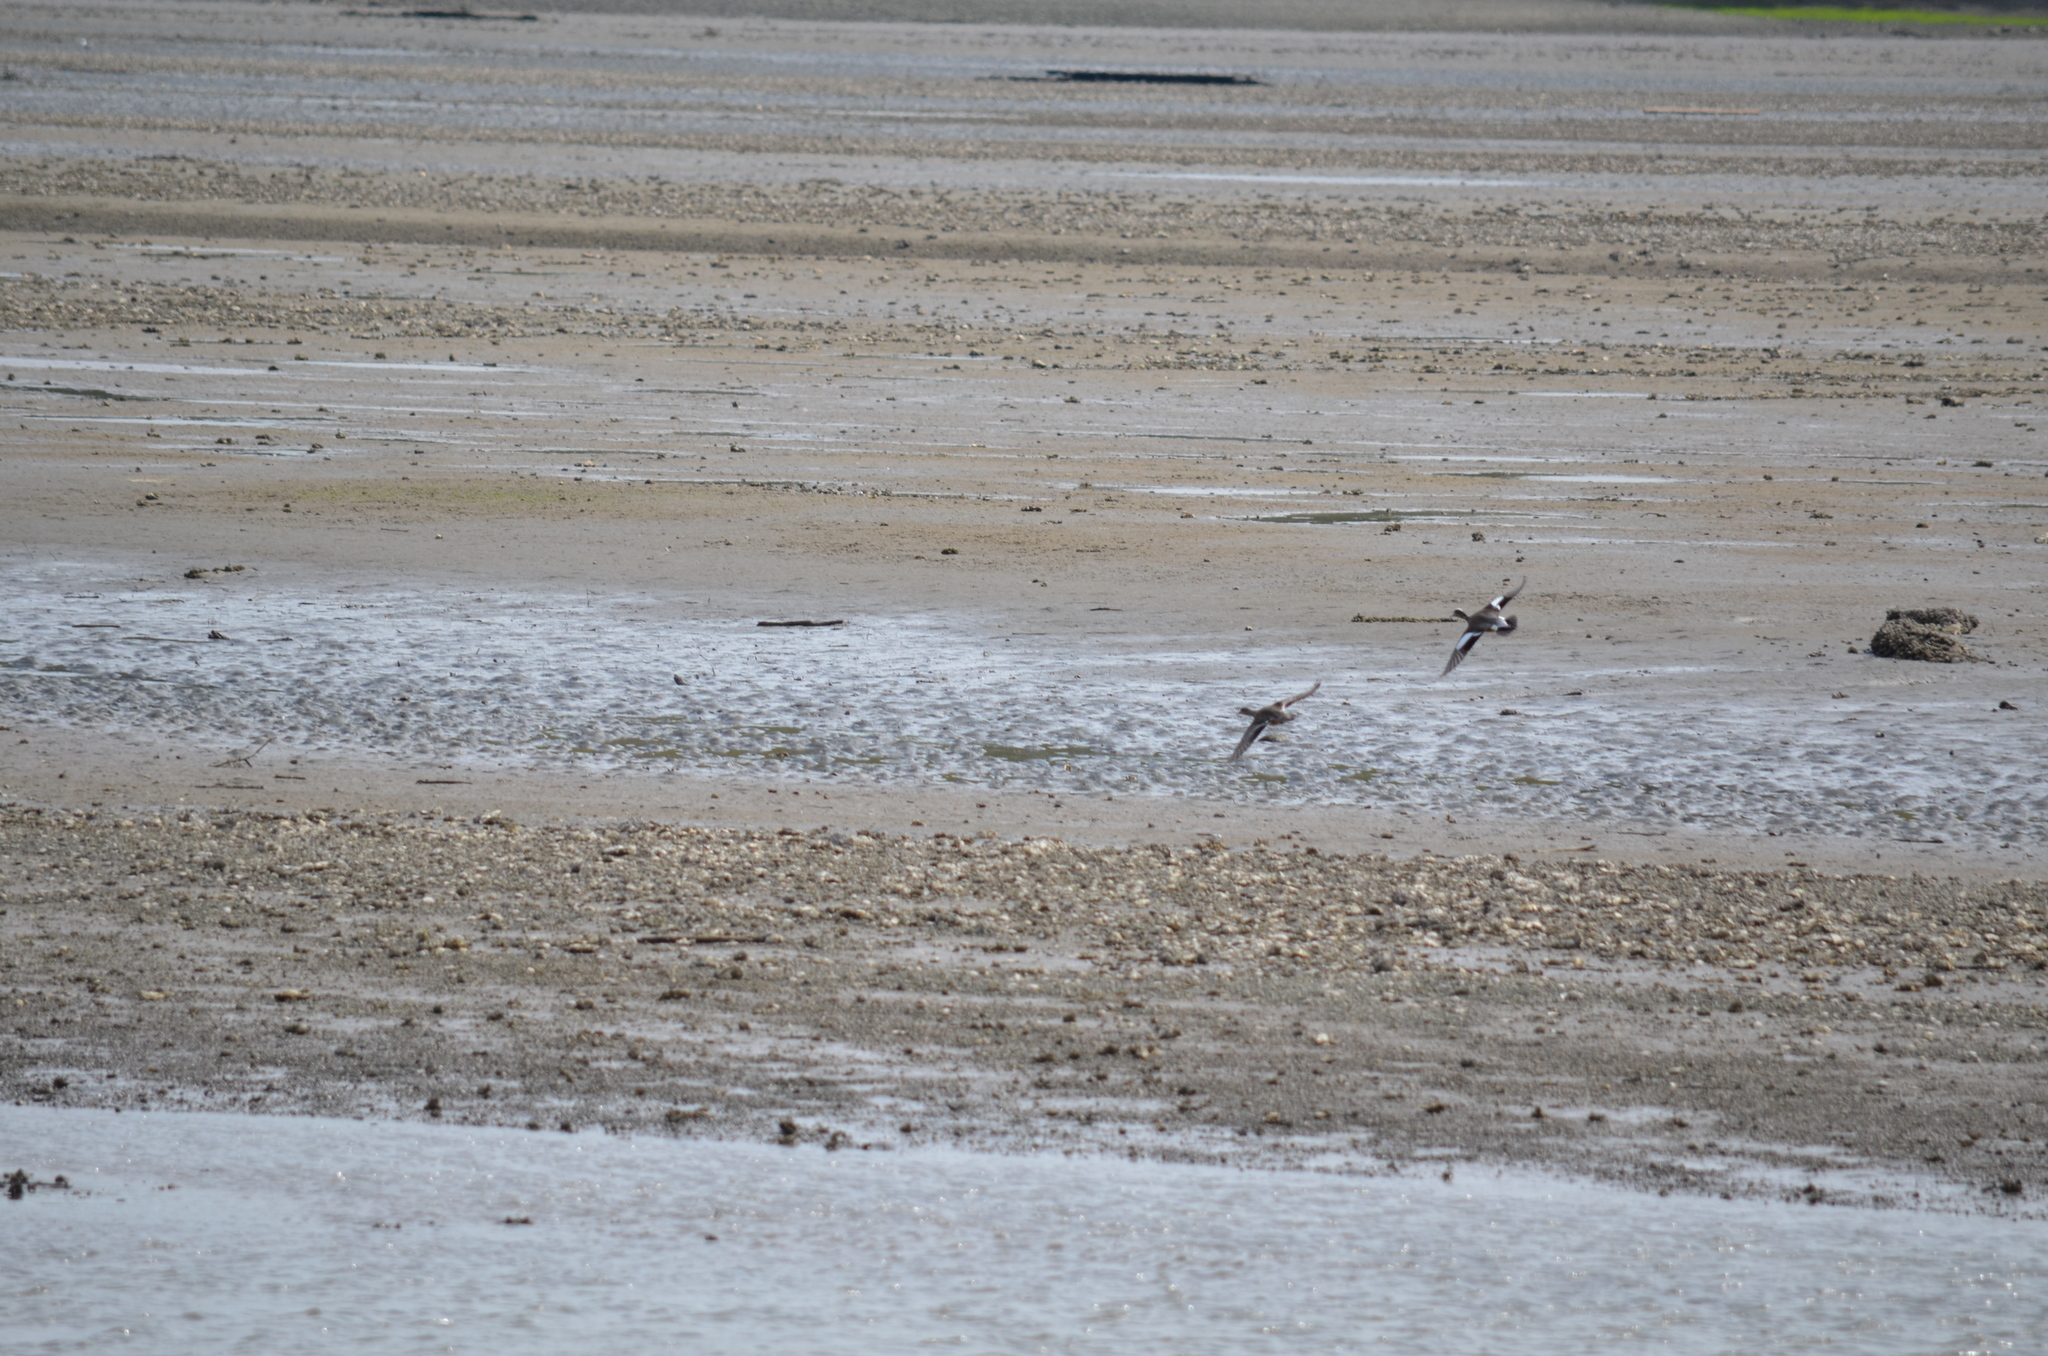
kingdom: Animalia
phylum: Chordata
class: Aves
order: Anseriformes
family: Anatidae
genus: Mareca
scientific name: Mareca americana
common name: American wigeon
